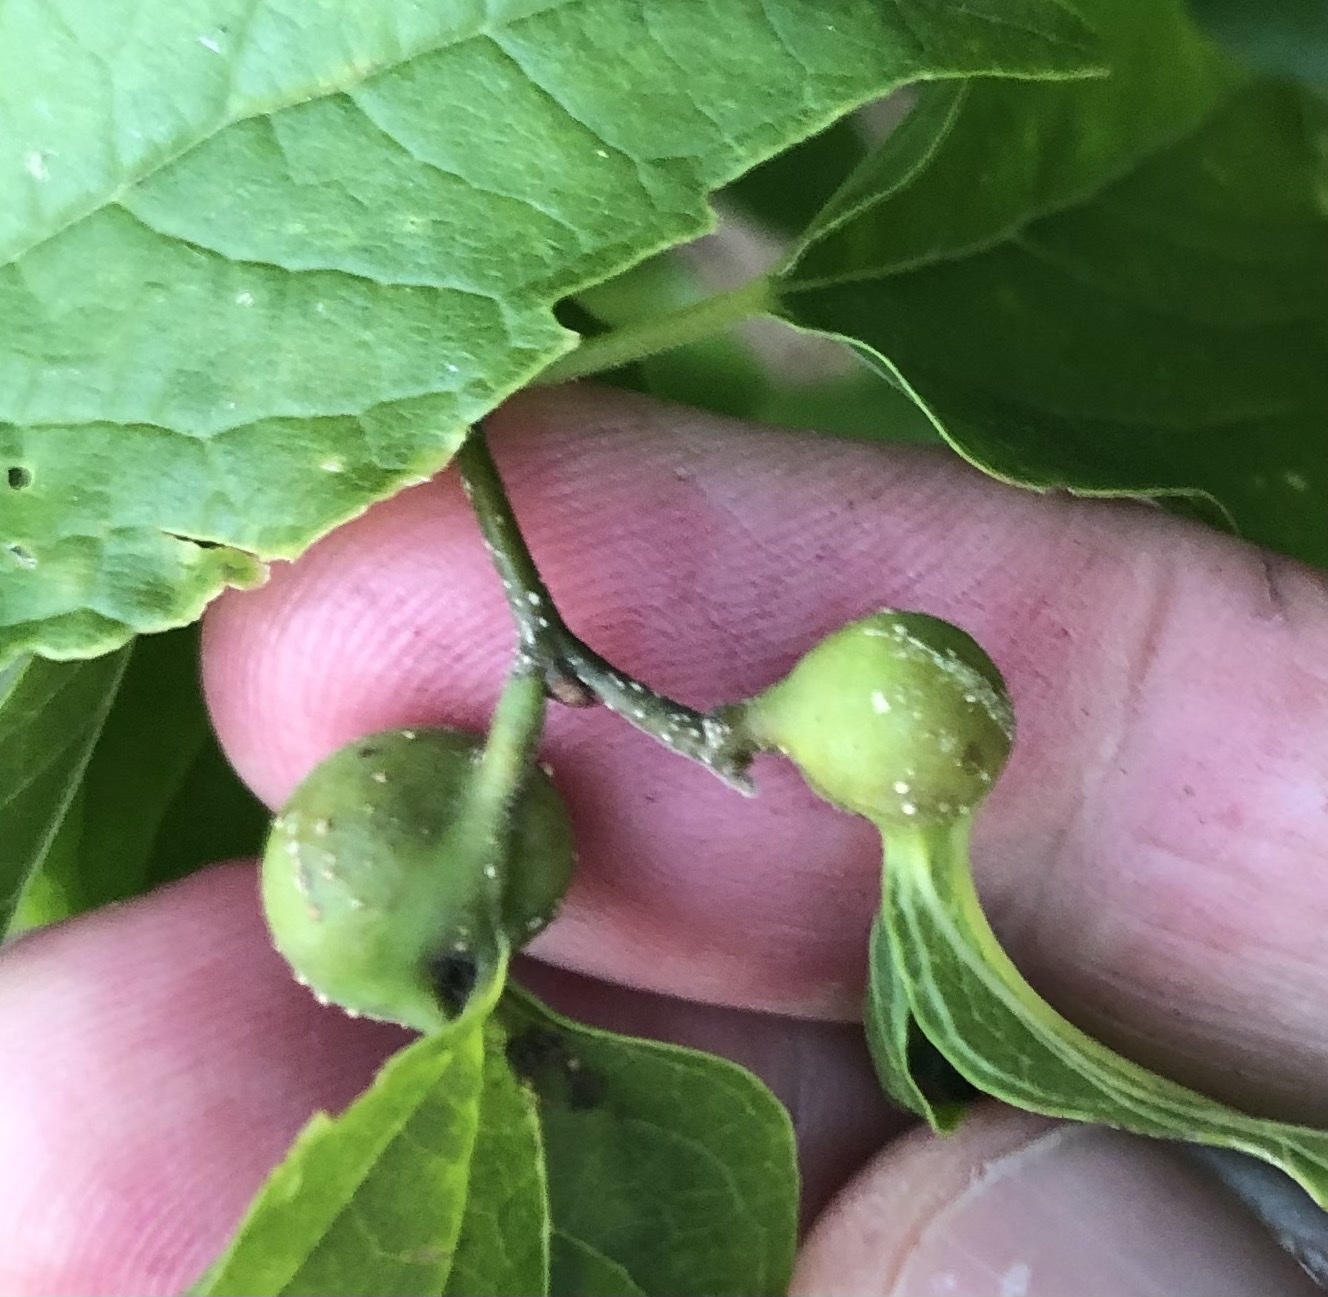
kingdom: Animalia
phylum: Arthropoda
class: Insecta
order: Hemiptera
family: Aphalaridae
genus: Pachypsylla
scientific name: Pachypsylla venusta
